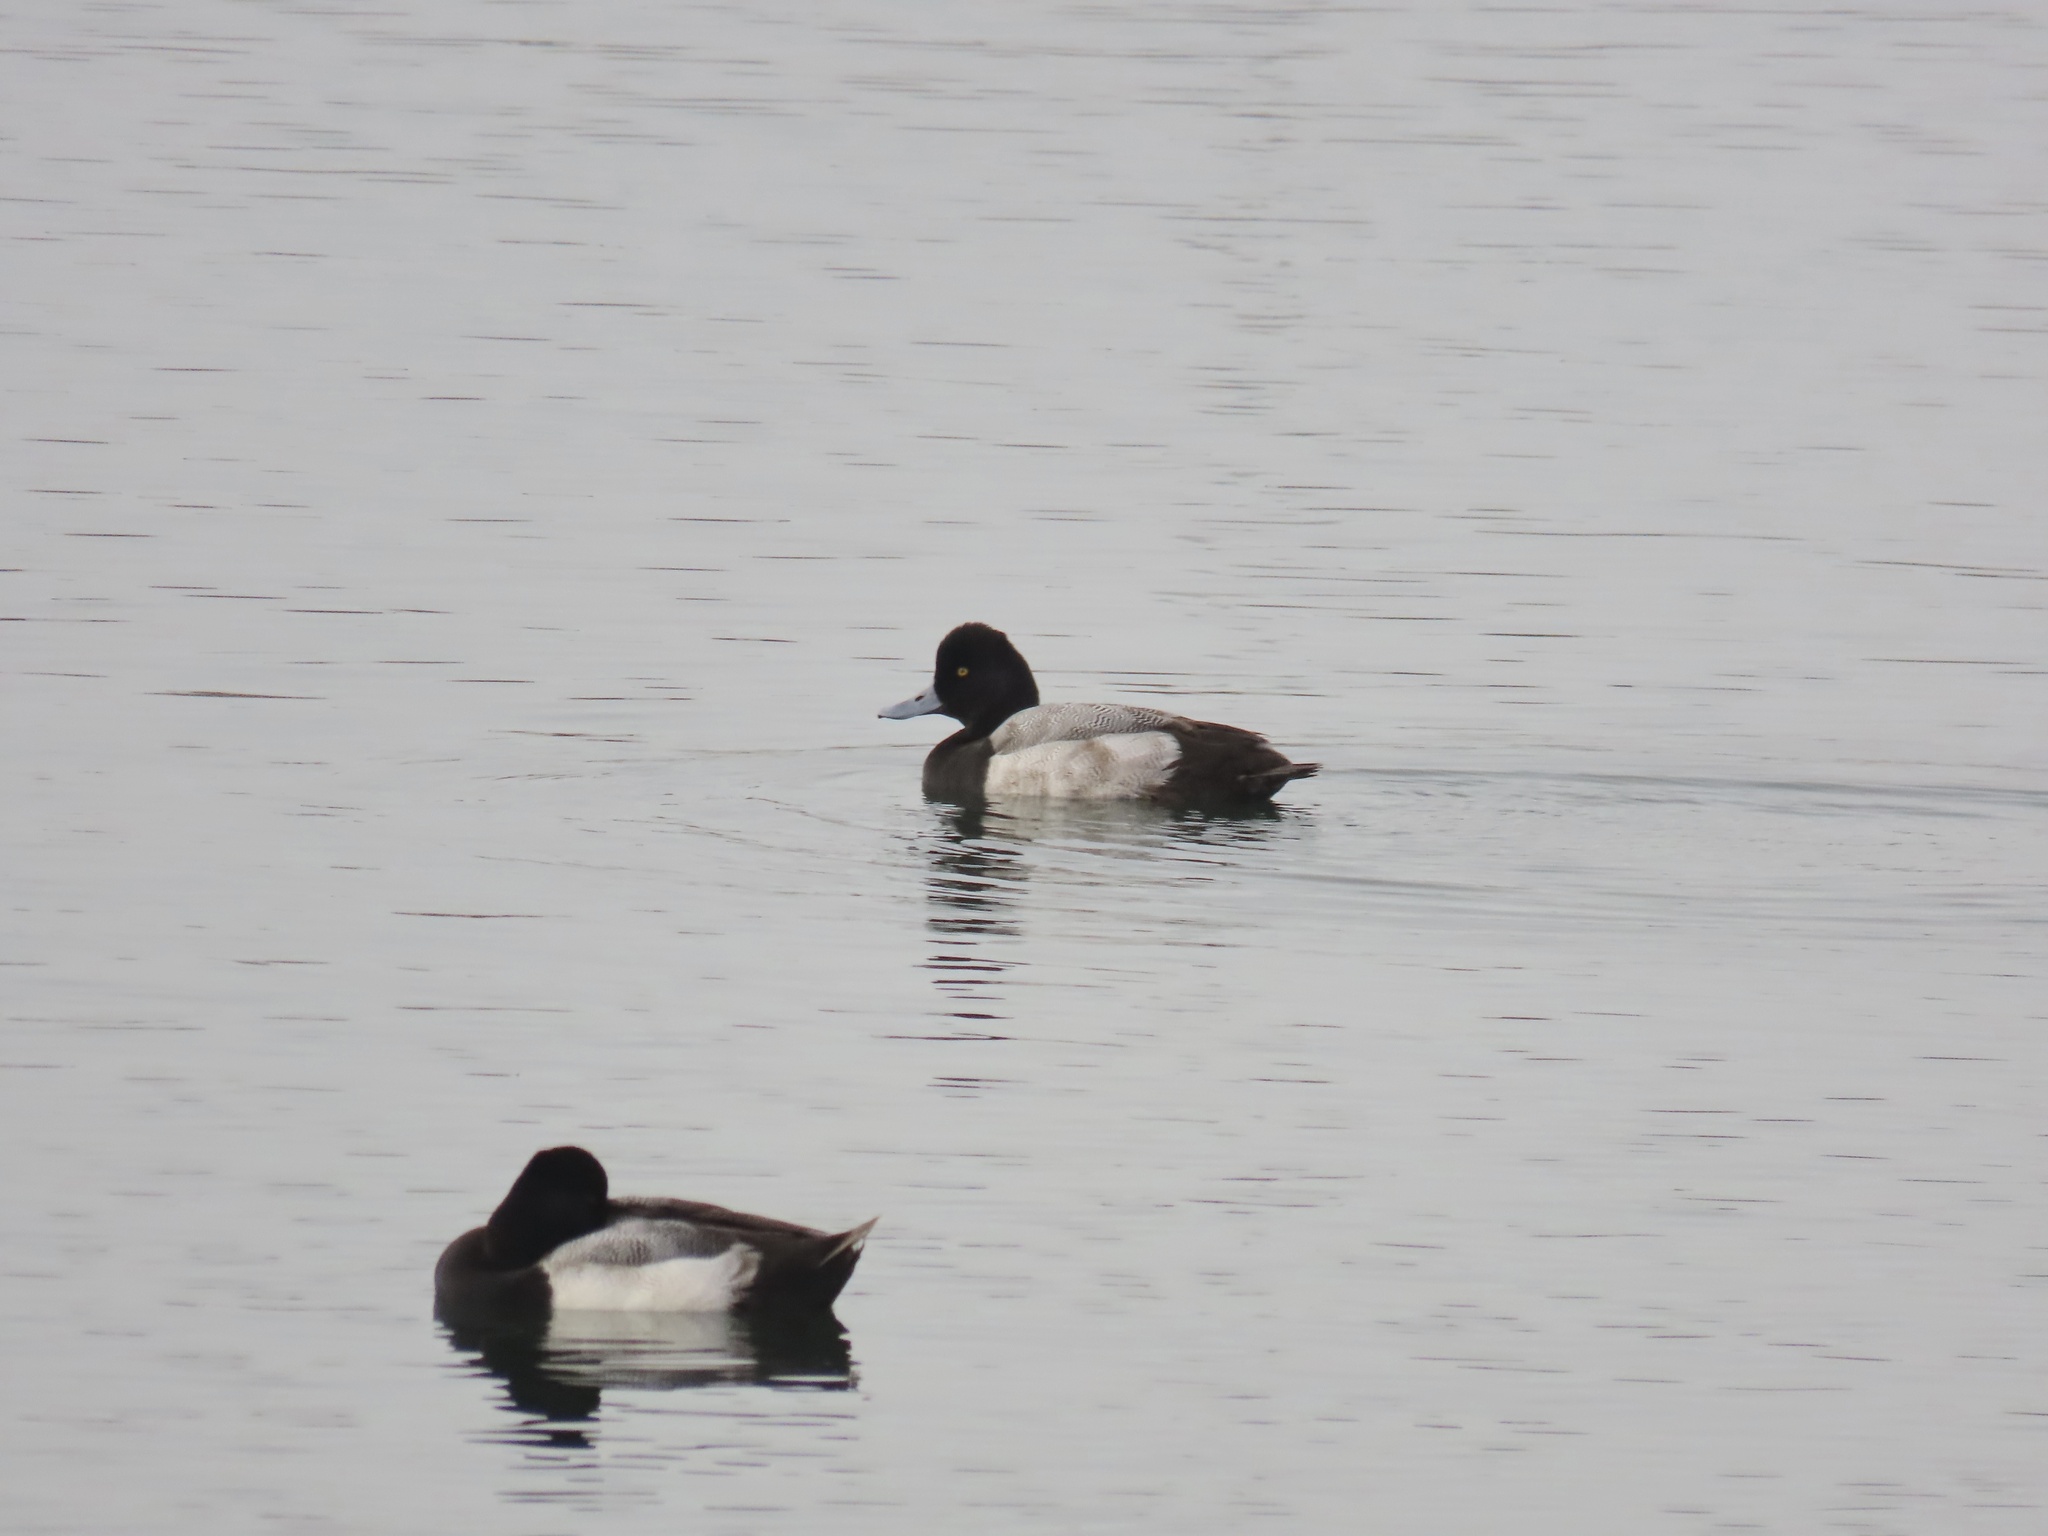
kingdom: Animalia
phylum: Chordata
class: Aves
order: Anseriformes
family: Anatidae
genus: Aythya
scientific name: Aythya affinis
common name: Lesser scaup
